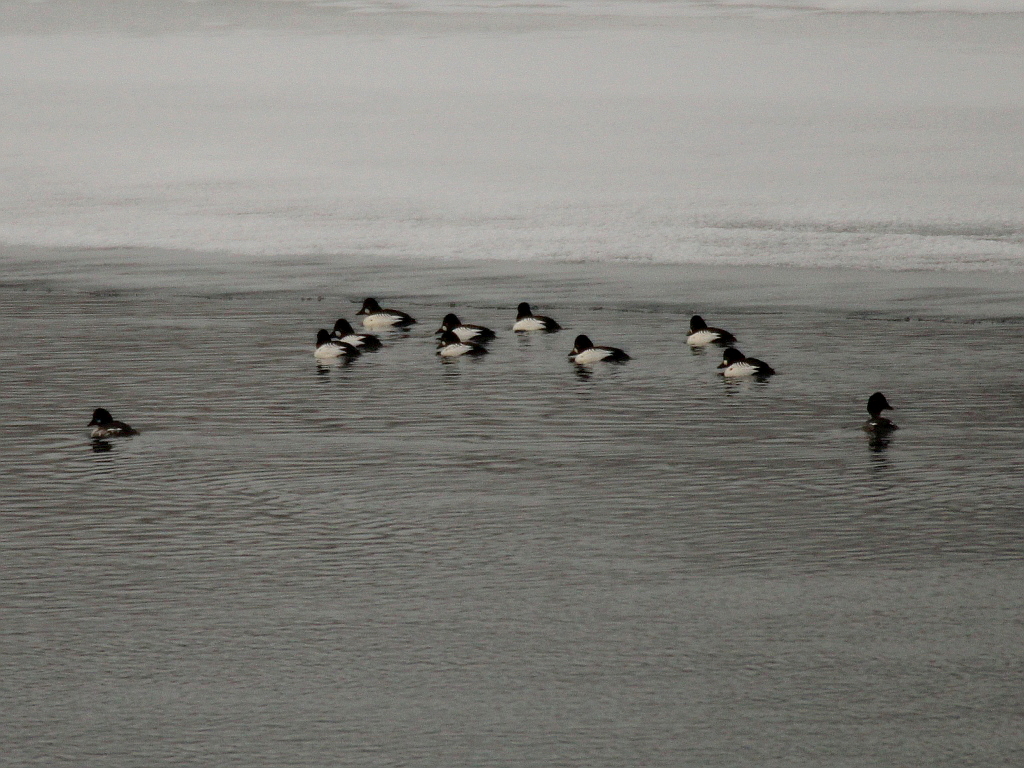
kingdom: Animalia
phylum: Chordata
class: Aves
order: Anseriformes
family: Anatidae
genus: Bucephala
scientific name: Bucephala clangula
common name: Common goldeneye
